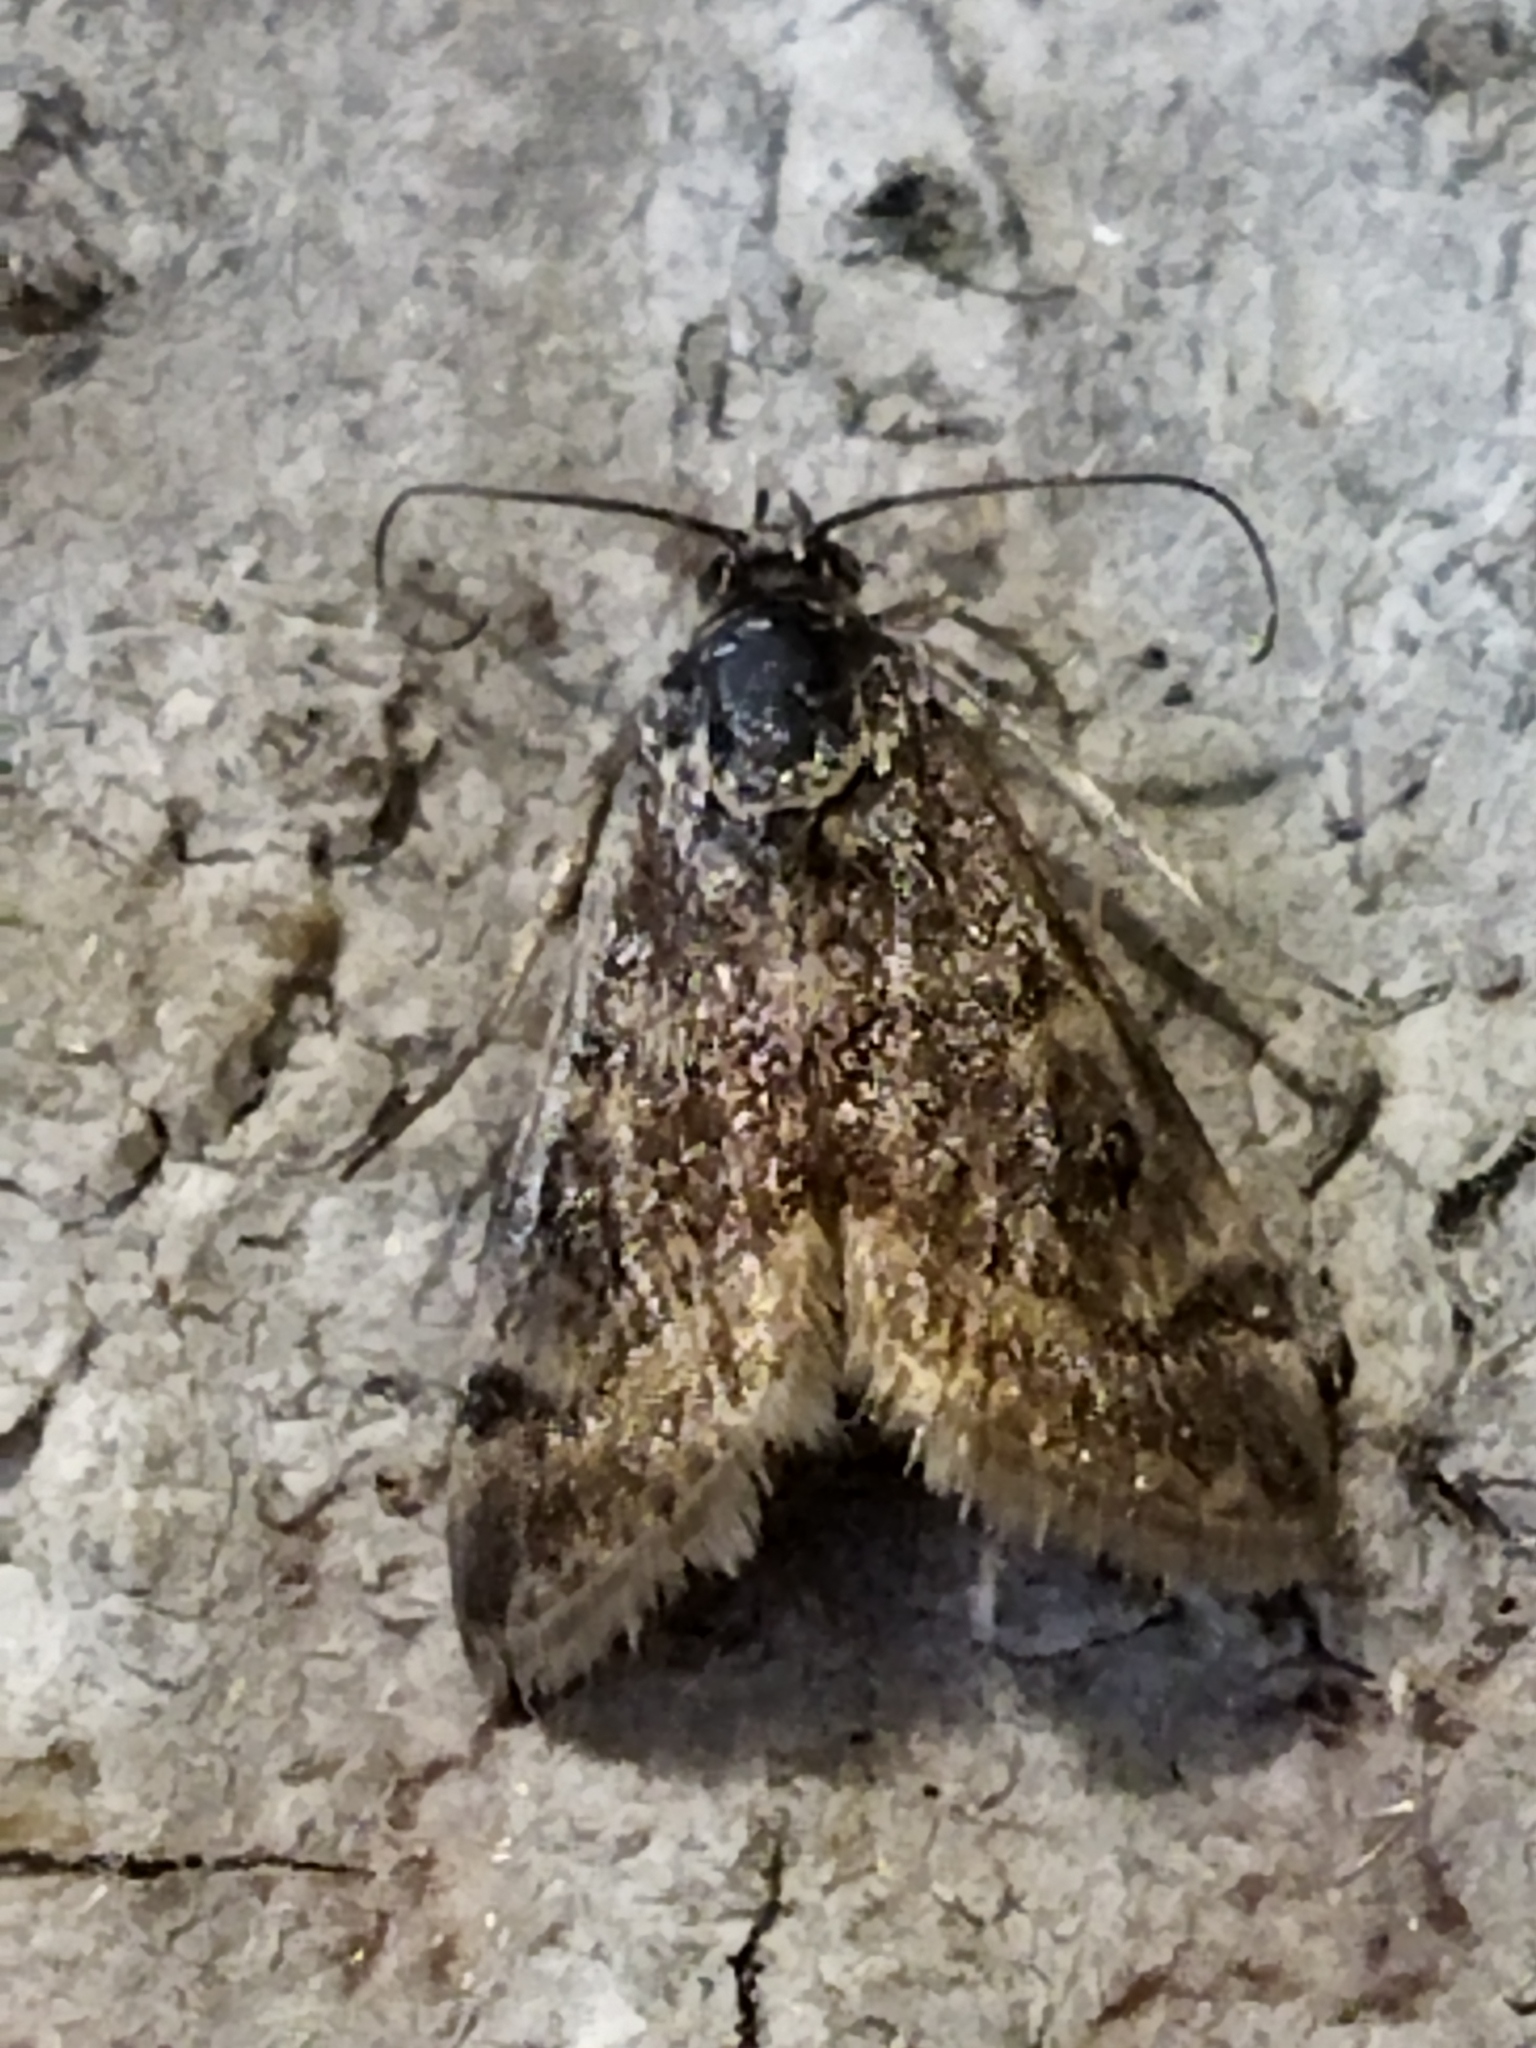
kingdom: Animalia
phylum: Arthropoda
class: Insecta
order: Lepidoptera
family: Crambidae
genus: Noctuelia
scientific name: Noctuelia Aporodes floralis
